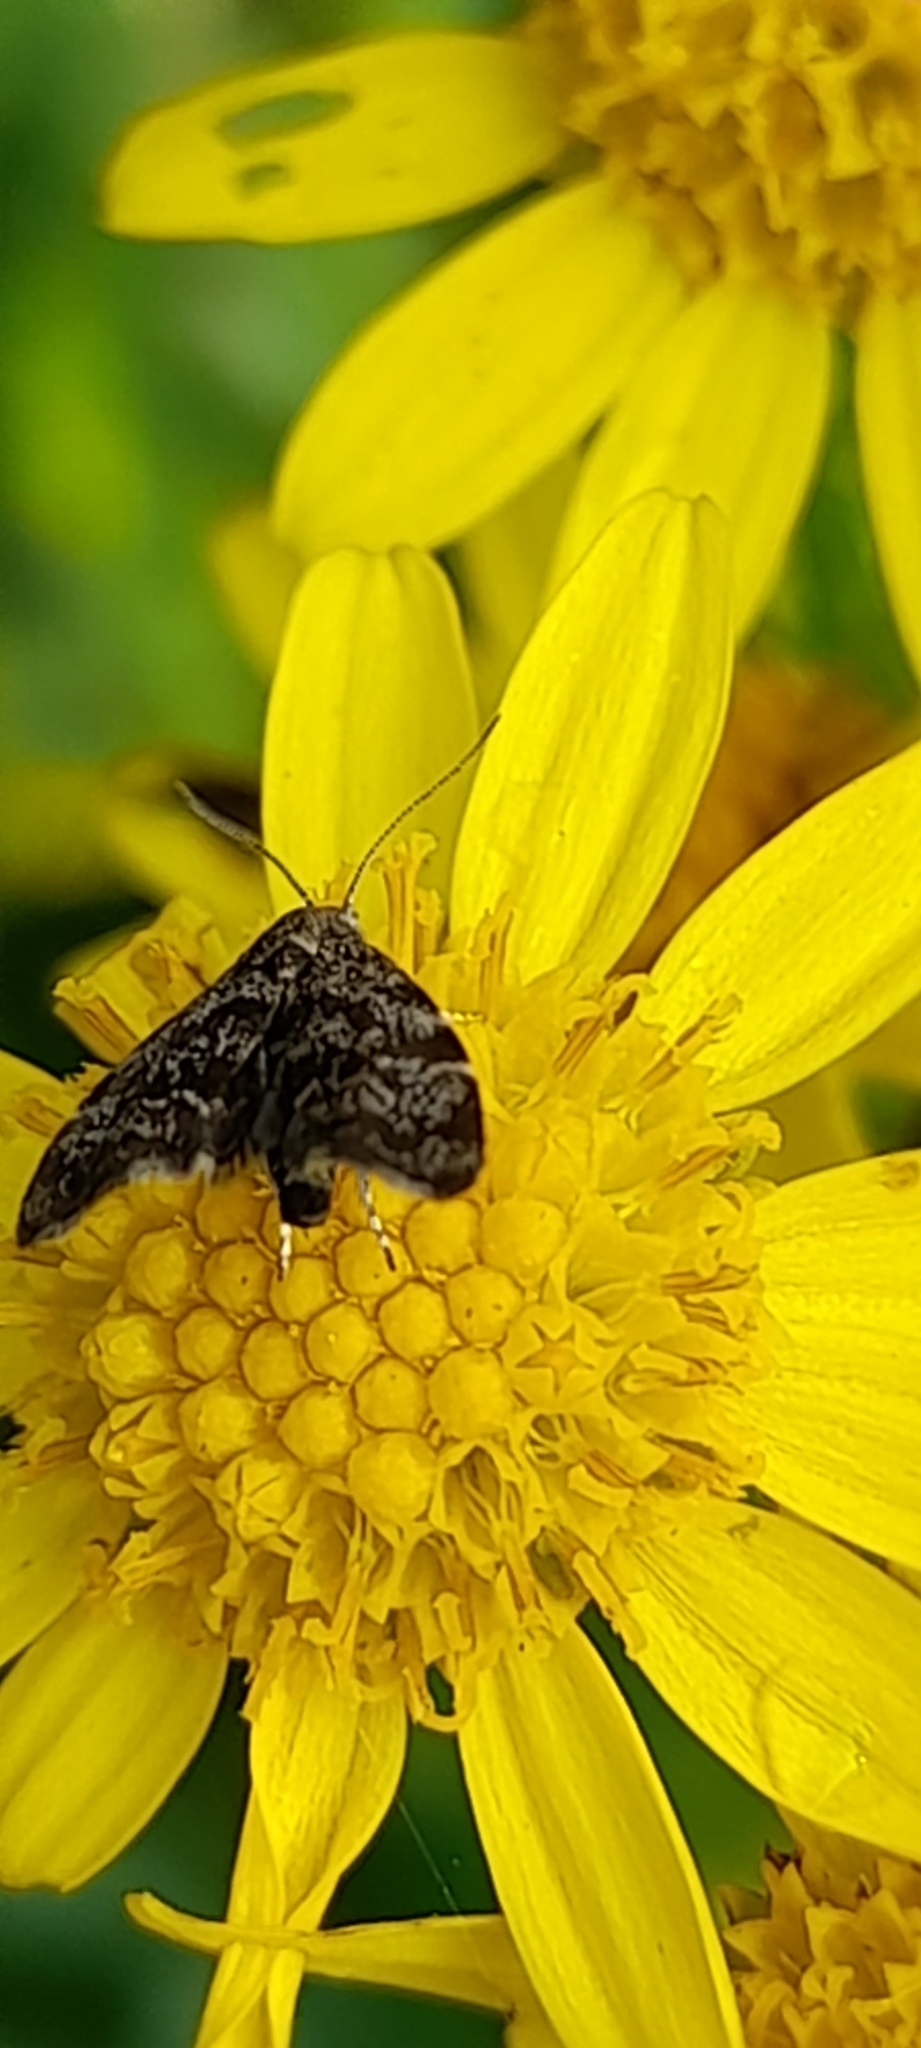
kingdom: Animalia
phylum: Arthropoda
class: Insecta
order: Lepidoptera
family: Choreutidae
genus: Anthophila
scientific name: Anthophila fabriciana
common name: Nettle-tap
